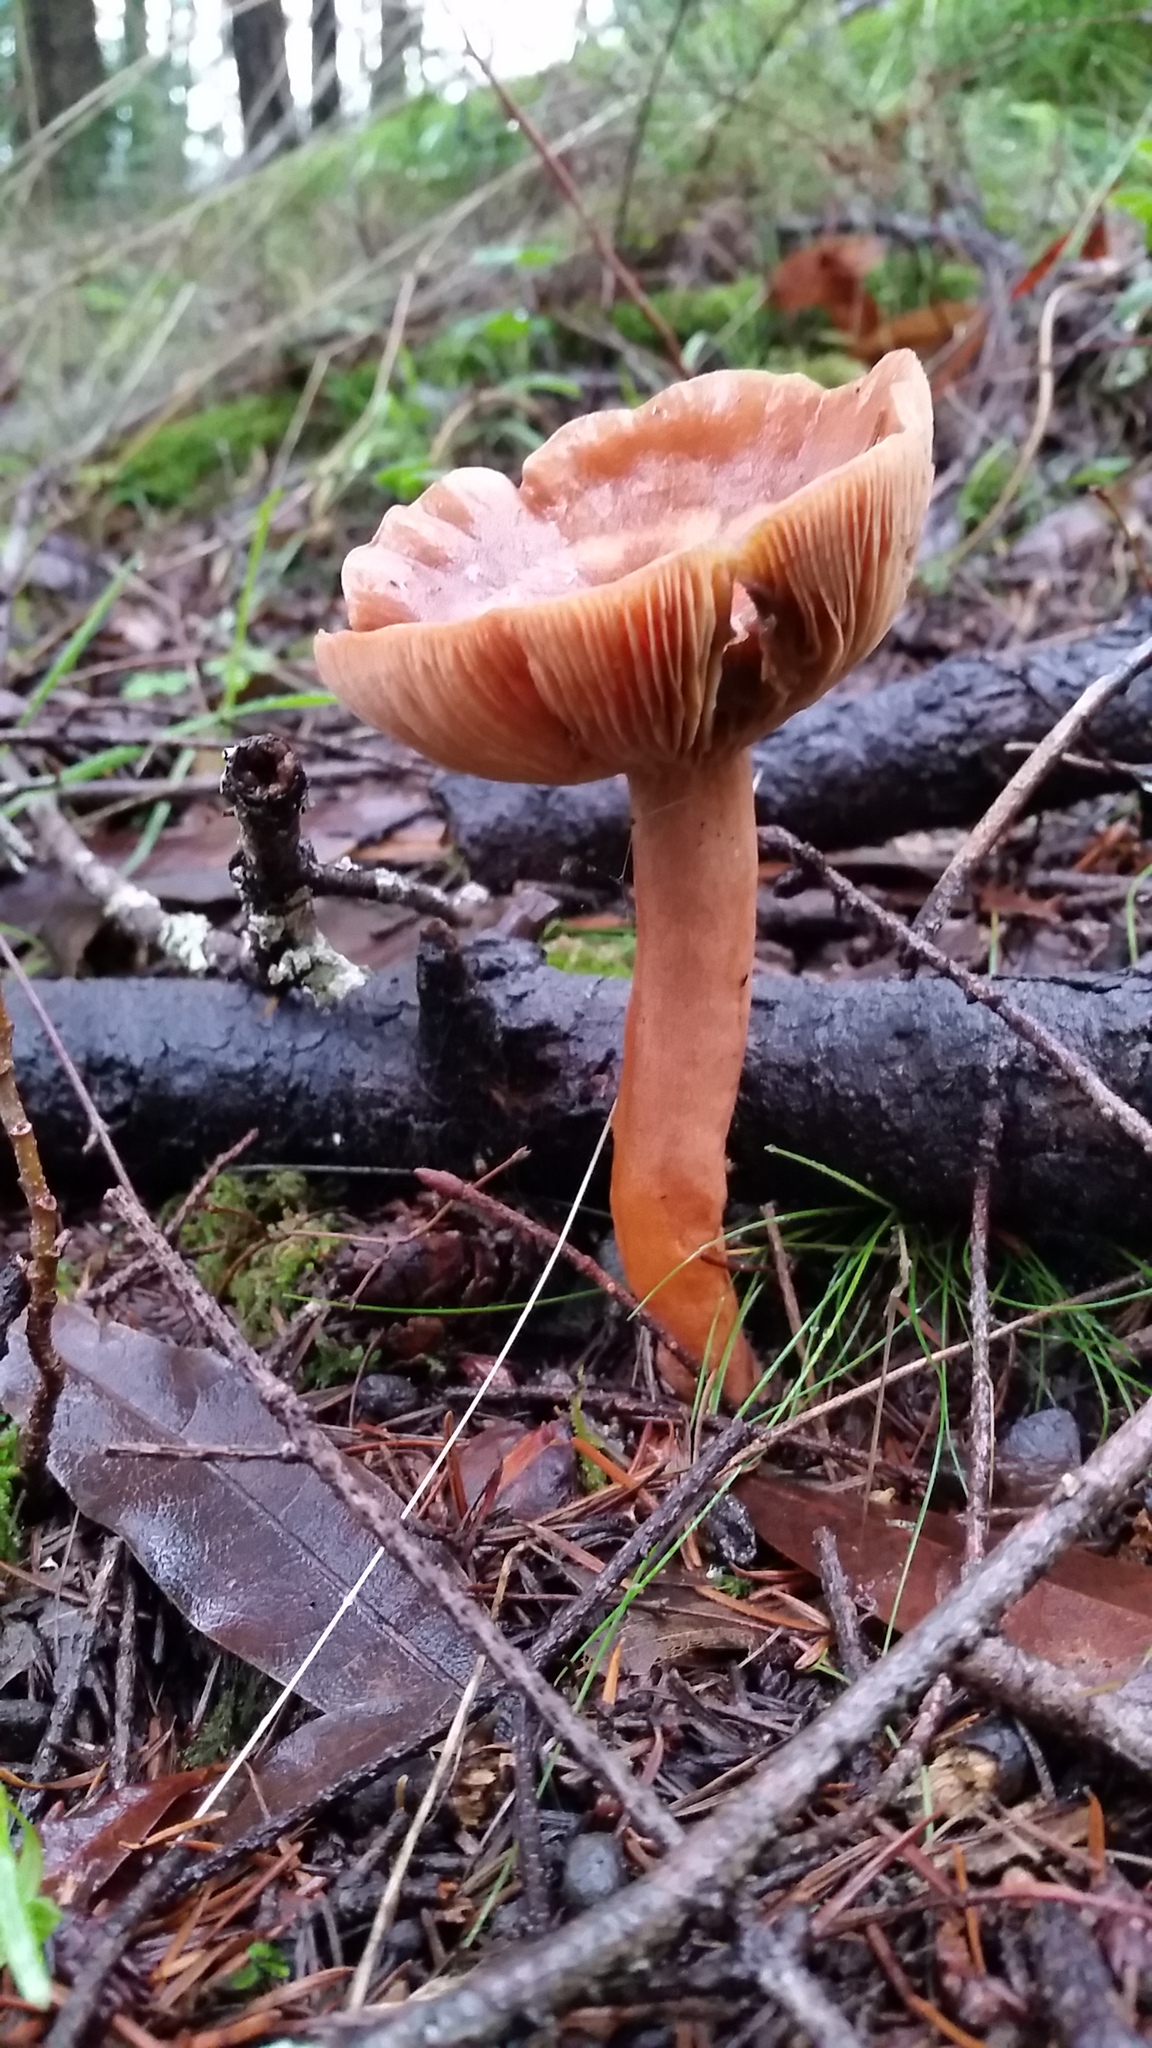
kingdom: Fungi
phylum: Basidiomycota
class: Agaricomycetes
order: Russulales
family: Russulaceae
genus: Lactarius
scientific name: Lactarius xanthogalactus
